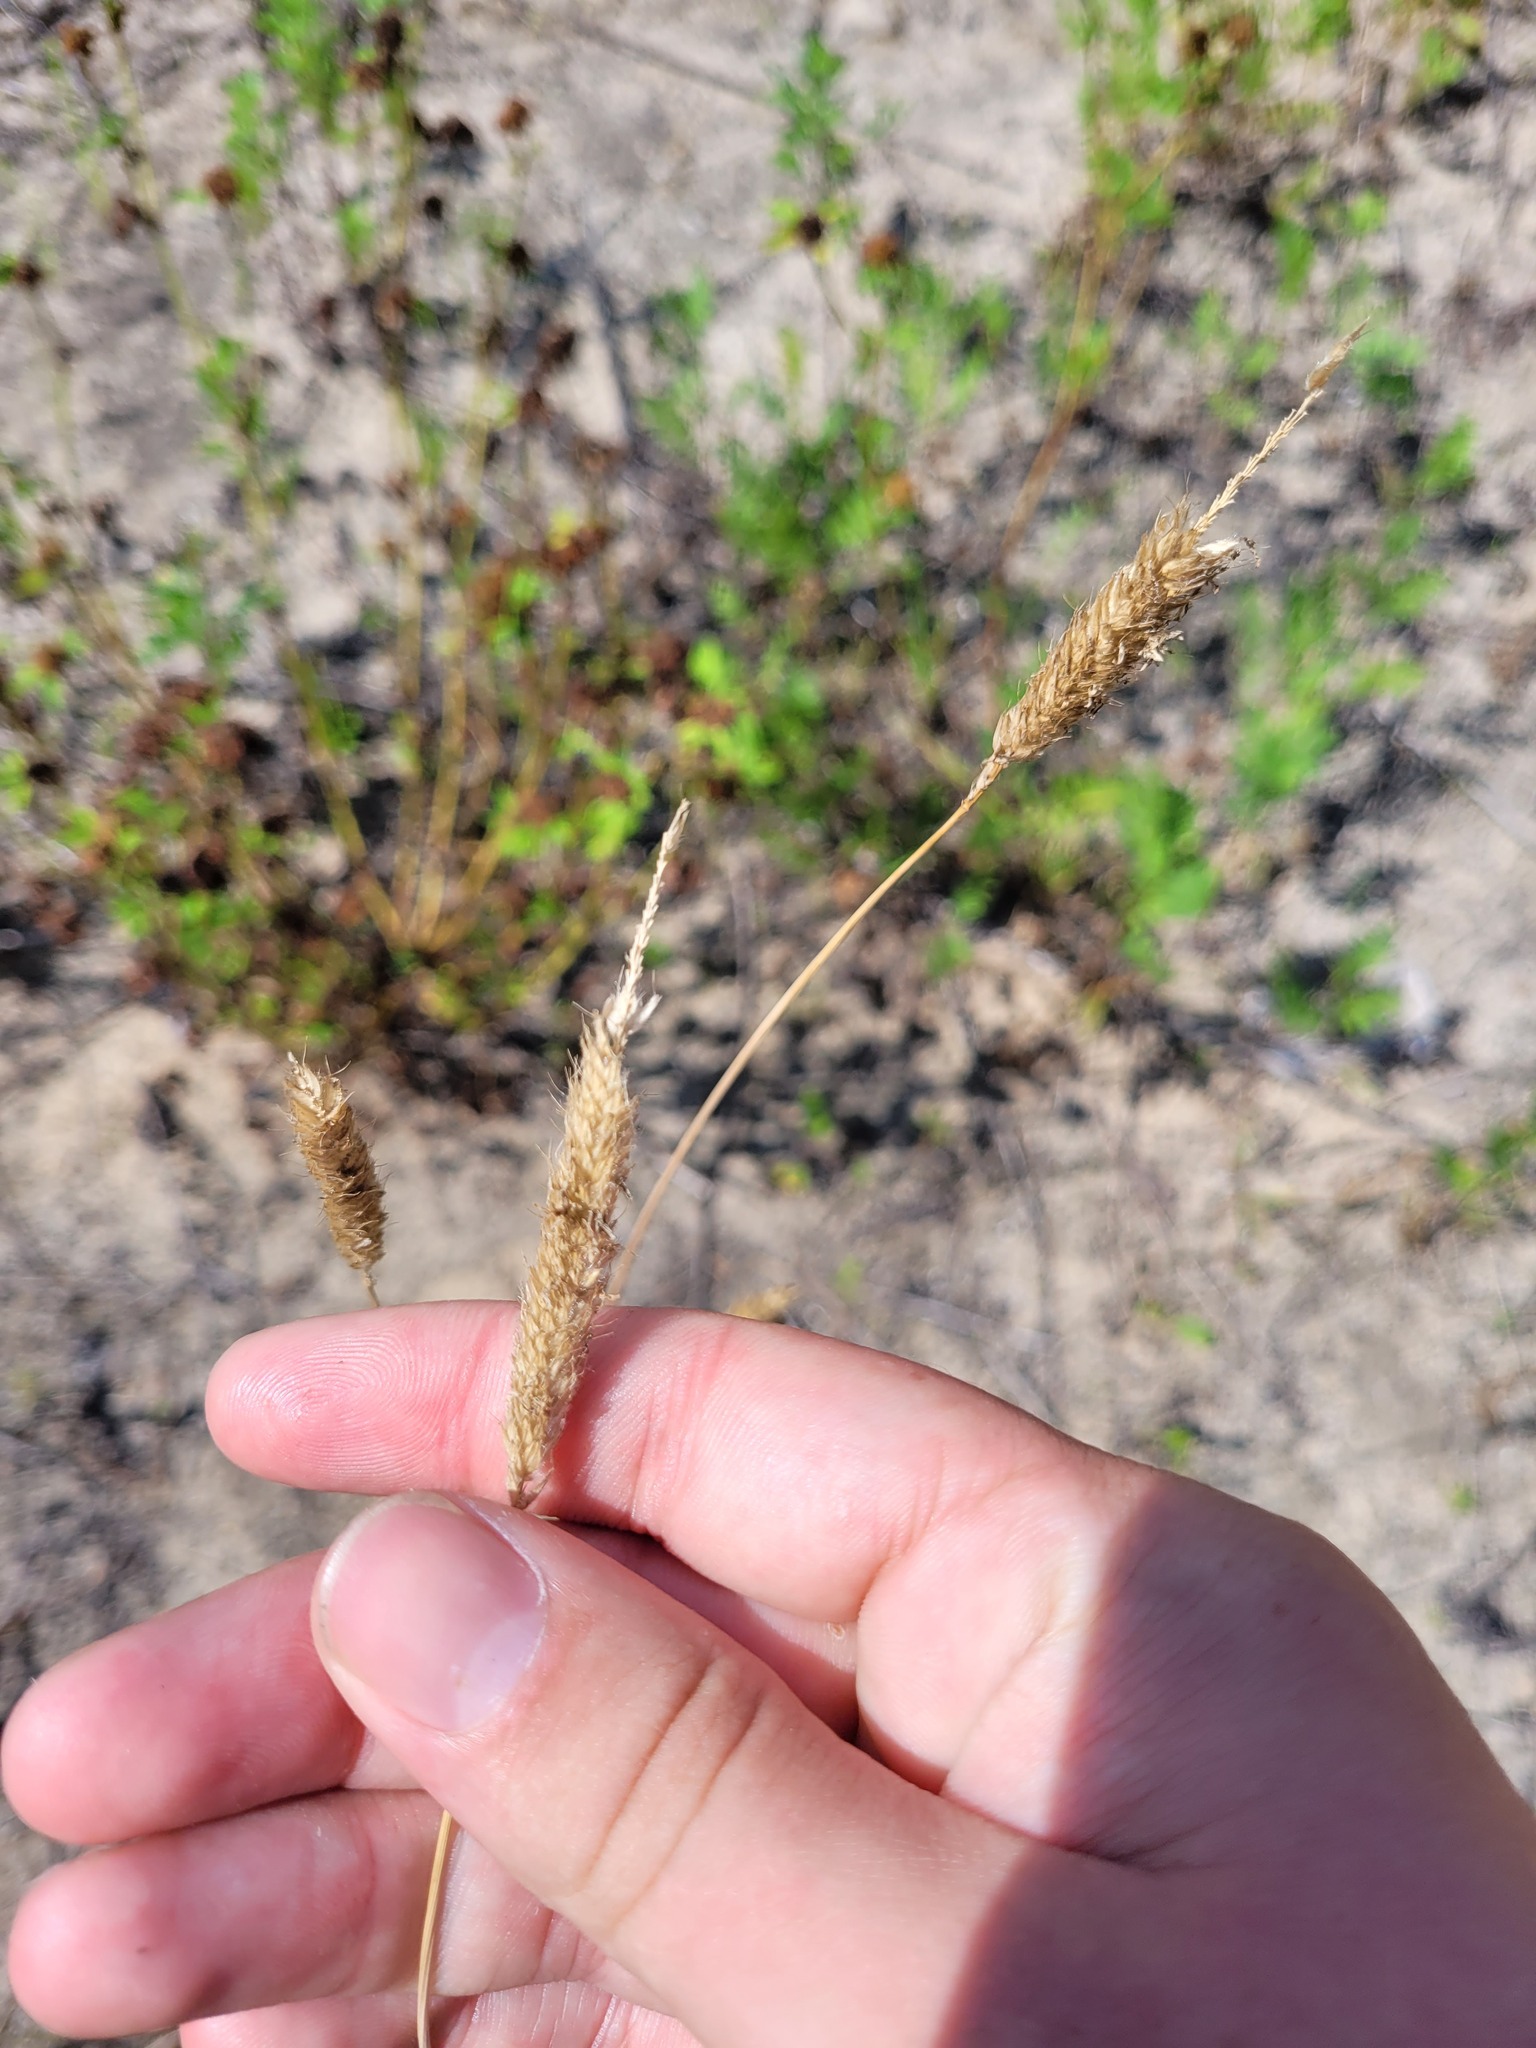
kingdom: Plantae
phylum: Tracheophyta
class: Liliopsida
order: Poales
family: Poaceae
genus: Alopecurus
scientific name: Alopecurus pratensis
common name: Meadow foxtail
